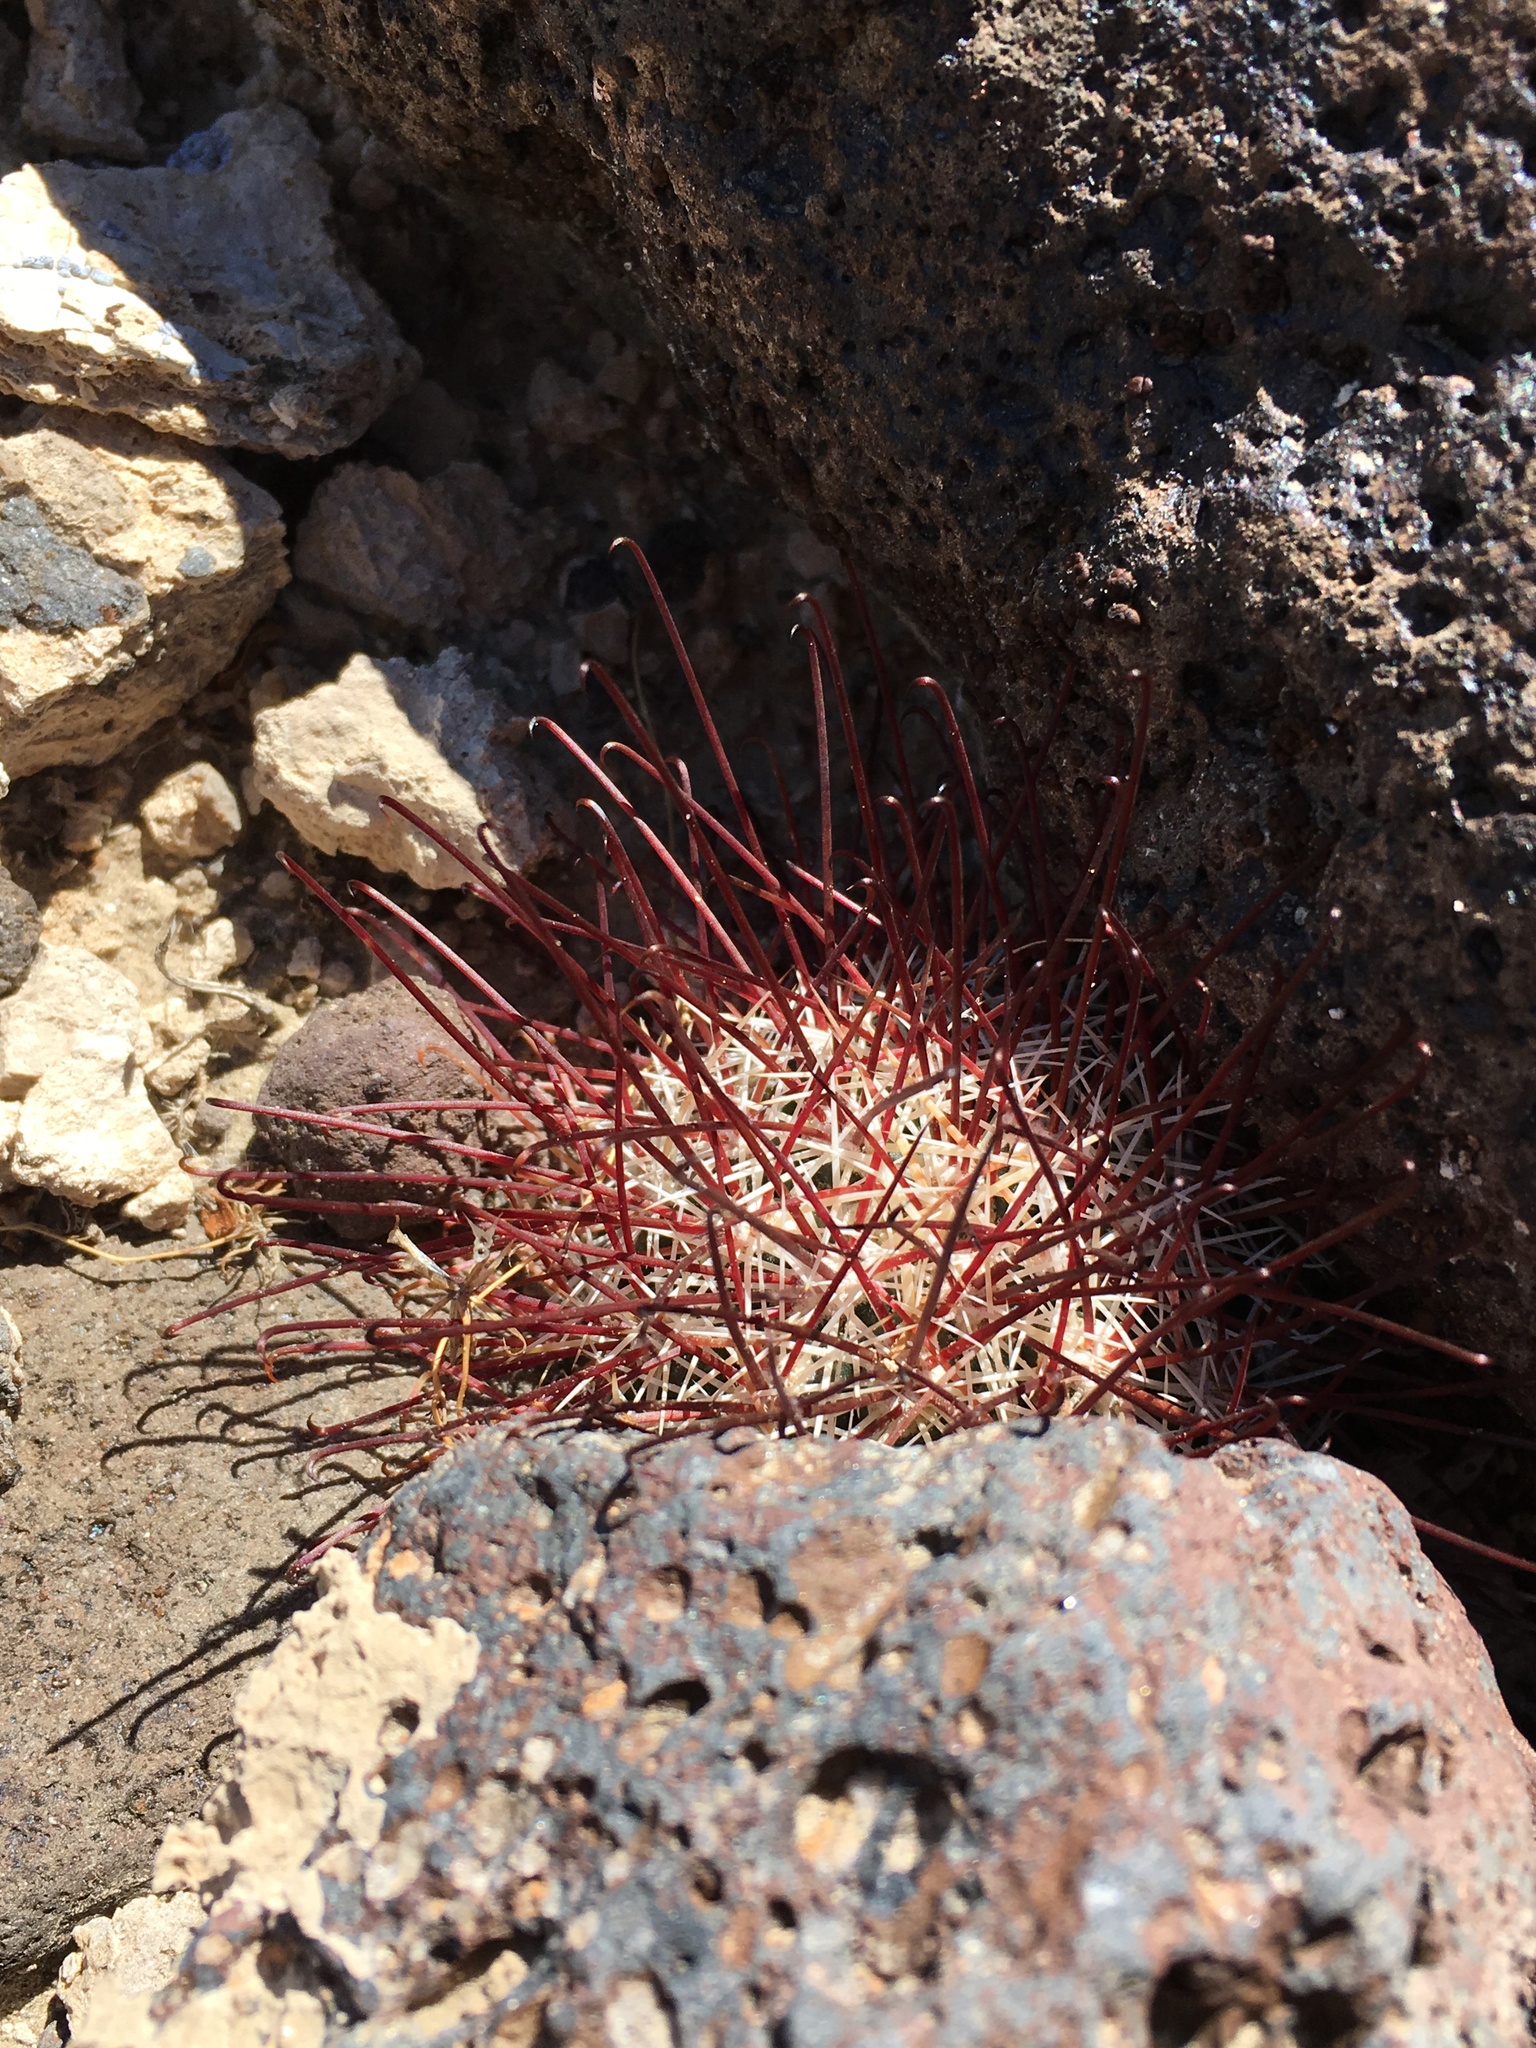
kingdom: Plantae
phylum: Tracheophyta
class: Magnoliopsida
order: Caryophyllales
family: Cactaceae
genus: Sclerocactus
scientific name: Sclerocactus polyancistrus
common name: Mohave fishhook cactus
